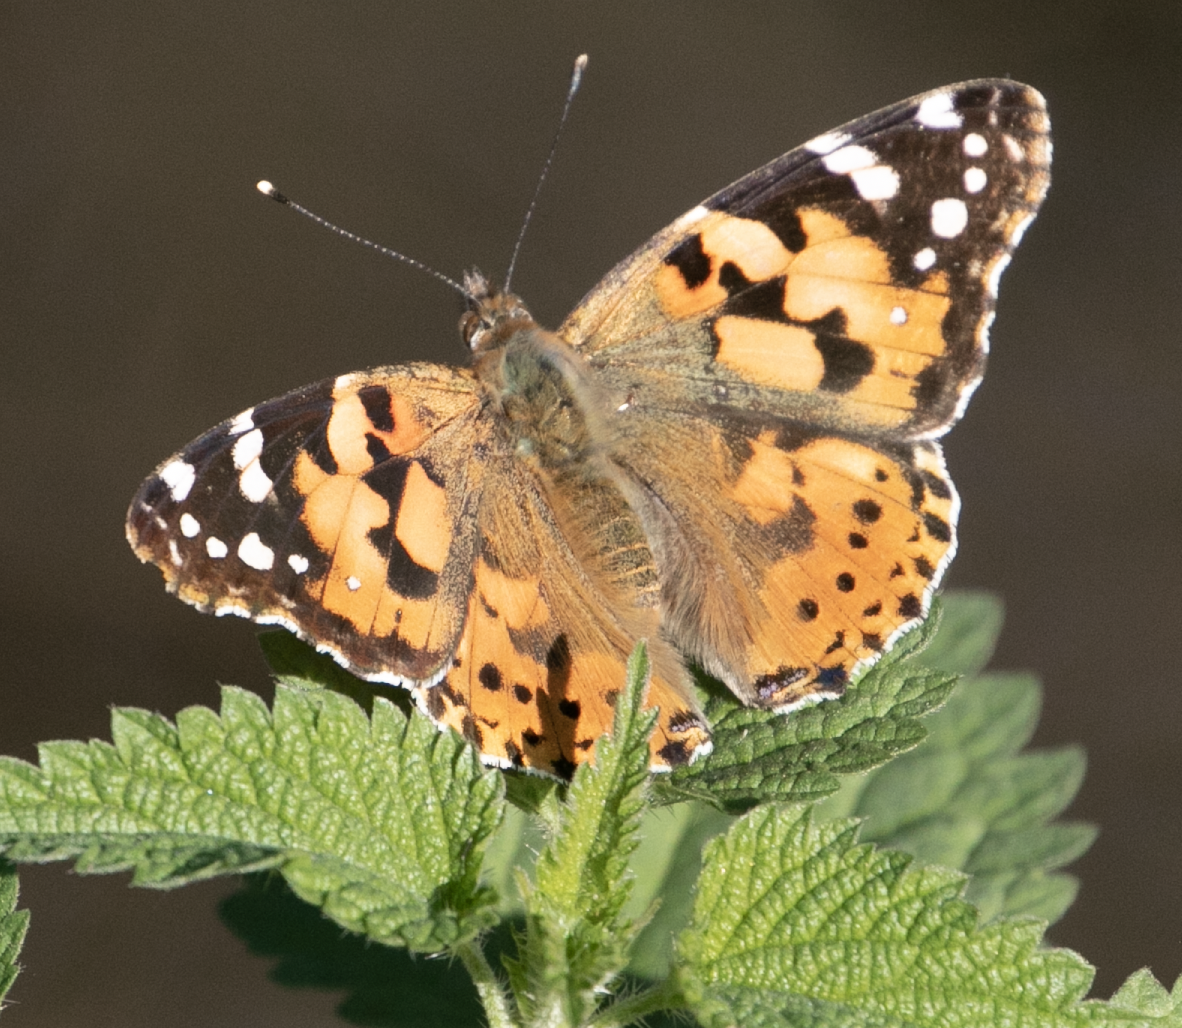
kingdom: Animalia
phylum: Arthropoda
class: Insecta
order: Lepidoptera
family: Nymphalidae
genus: Vanessa
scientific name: Vanessa cardui
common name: Painted lady
